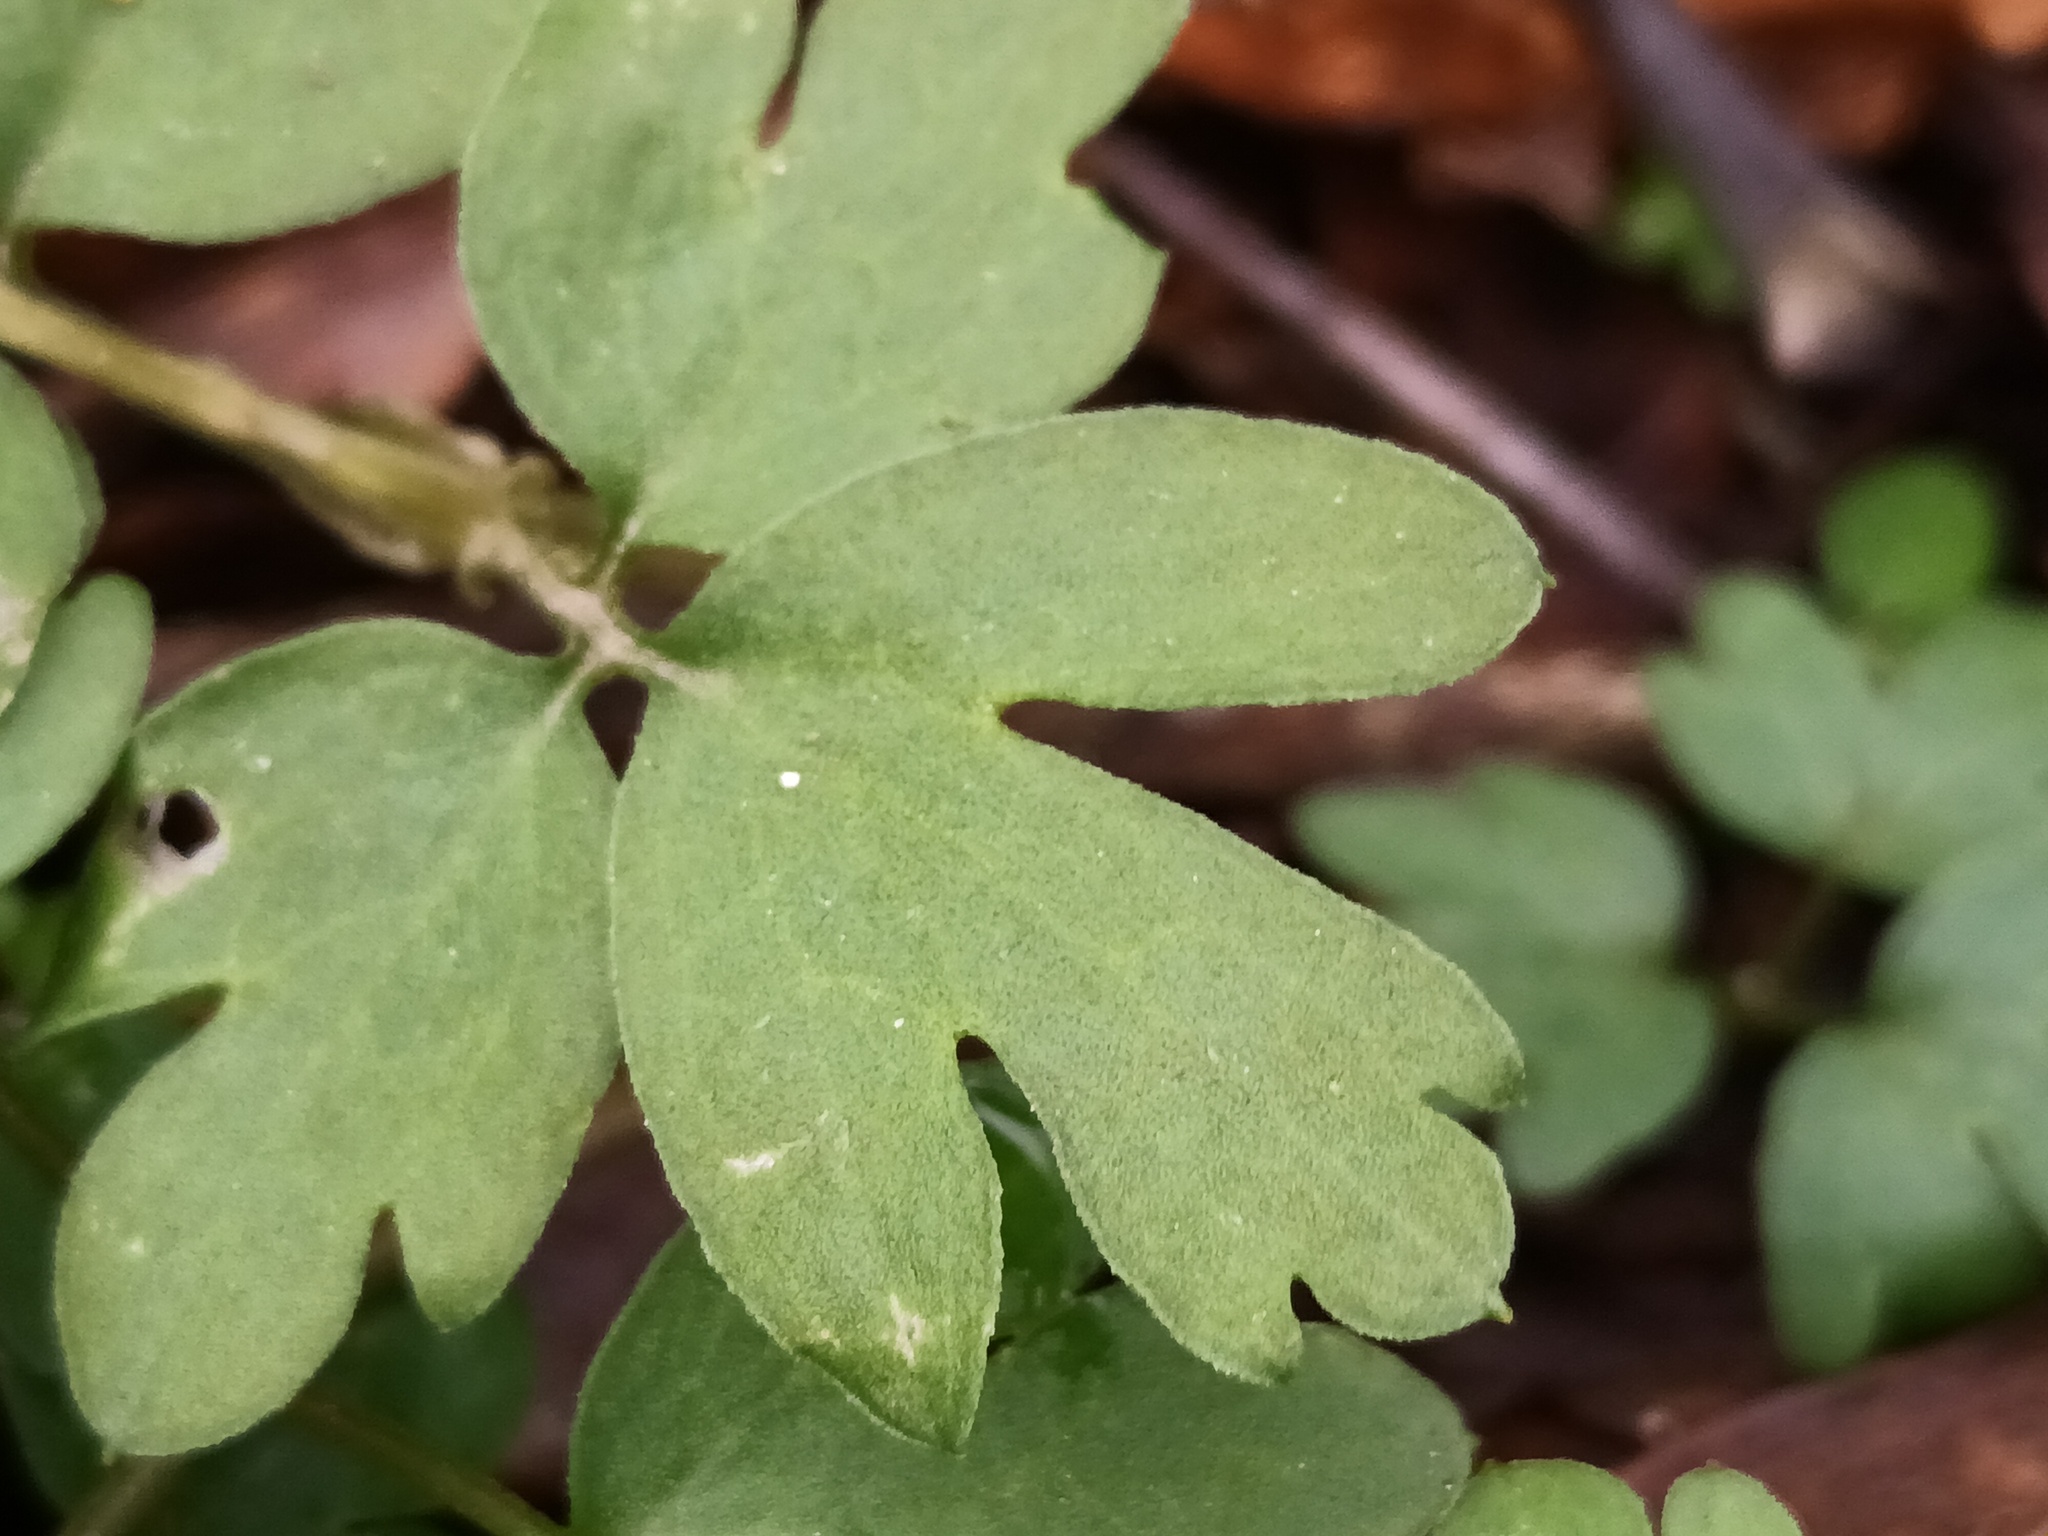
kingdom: Plantae
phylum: Tracheophyta
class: Magnoliopsida
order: Dipsacales
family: Viburnaceae
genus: Adoxa
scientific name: Adoxa moschatellina
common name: Moschatel
